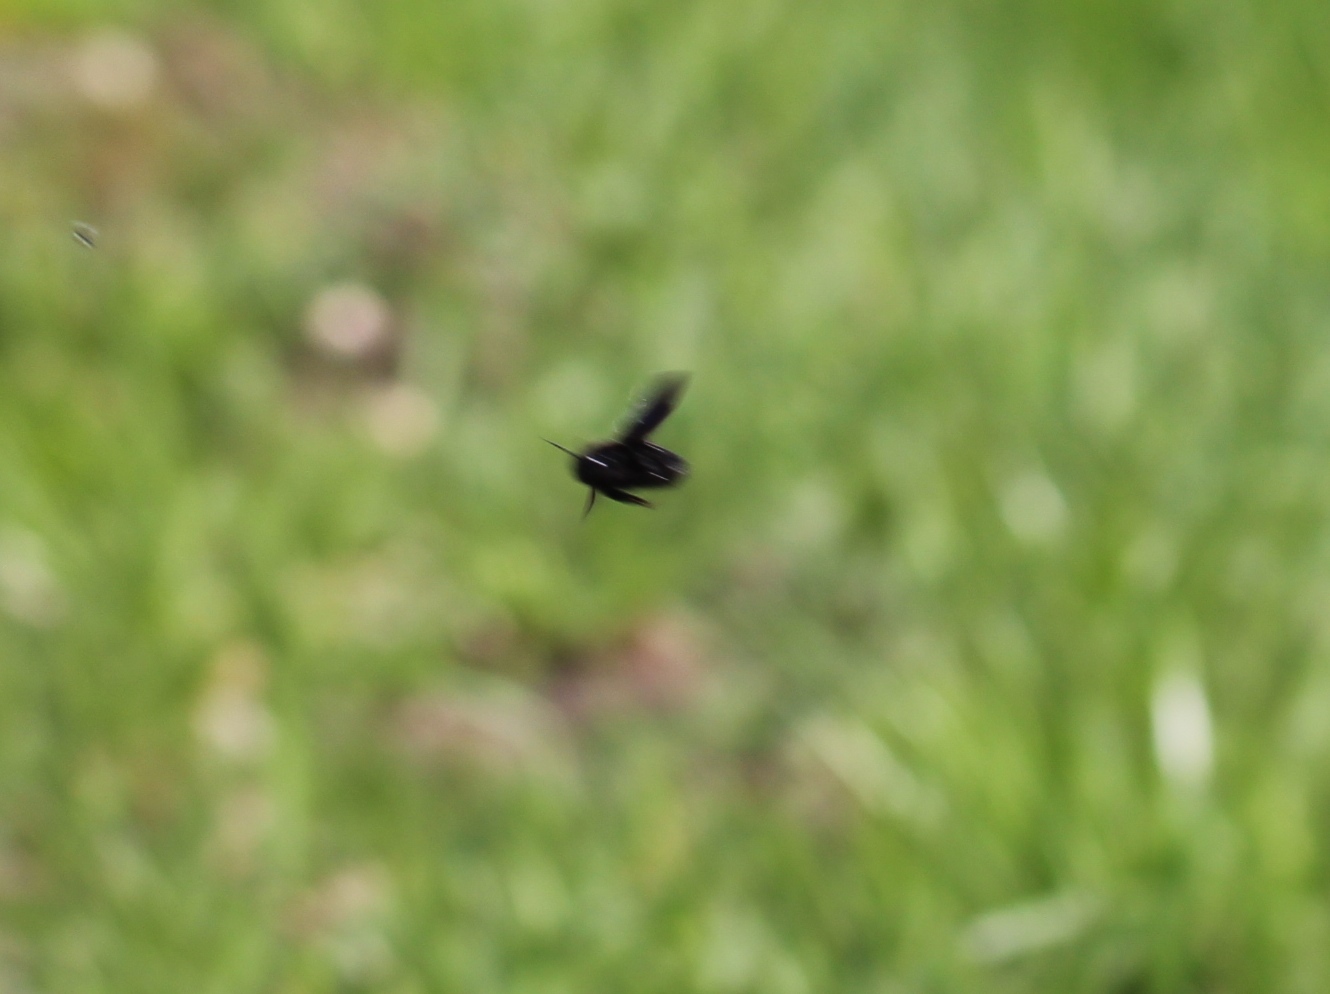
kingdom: Animalia
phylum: Arthropoda
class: Insecta
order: Hymenoptera
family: Apidae
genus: Xylocopa
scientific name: Xylocopa valga
